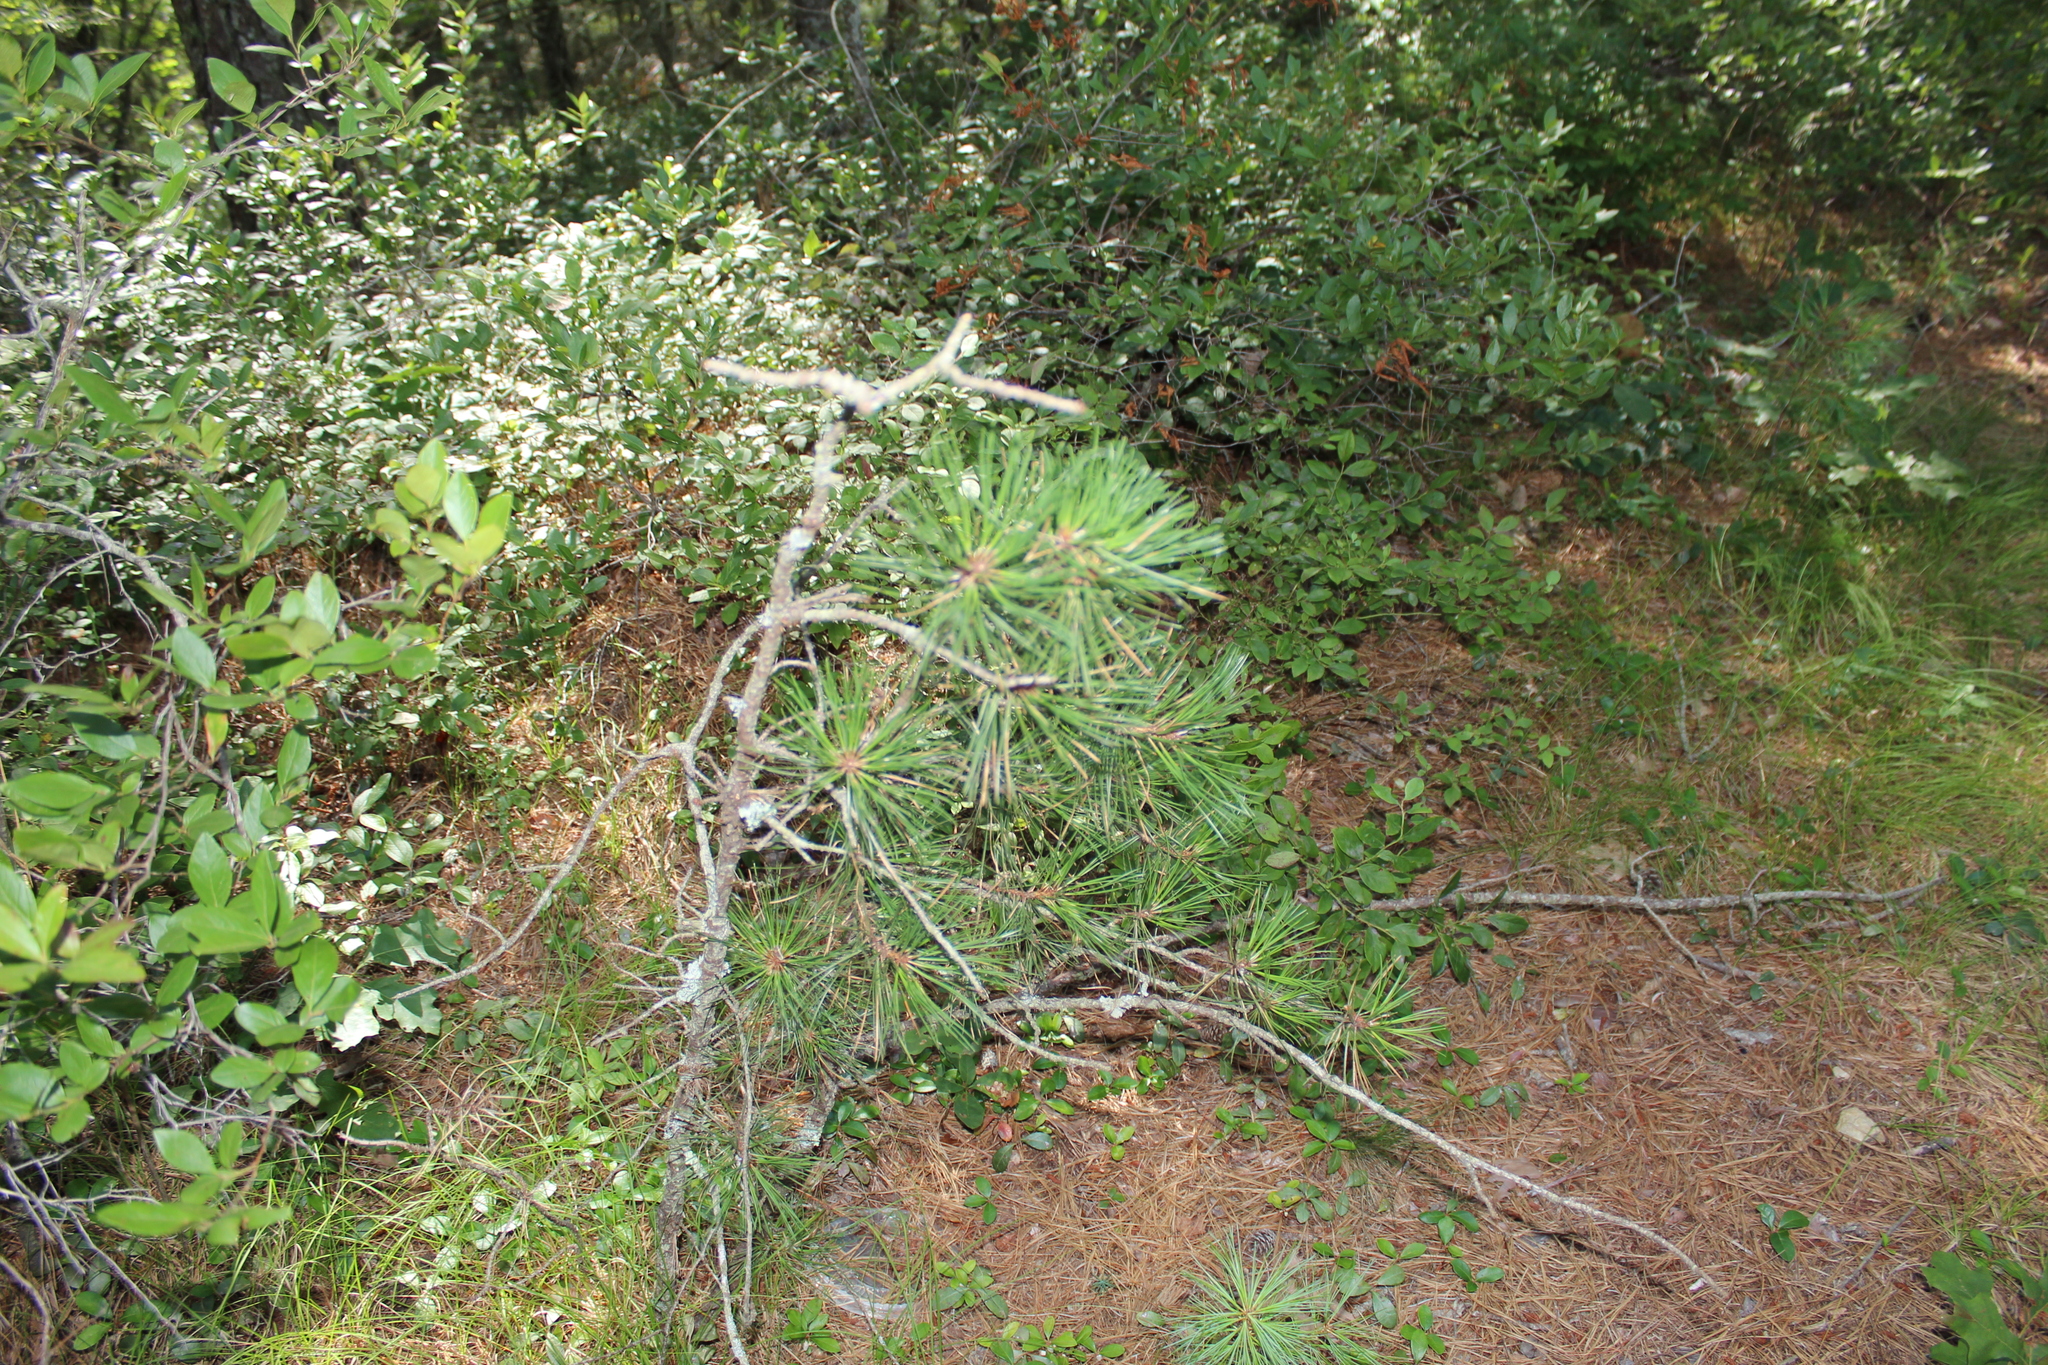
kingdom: Plantae
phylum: Tracheophyta
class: Pinopsida
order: Pinales
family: Pinaceae
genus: Pinus
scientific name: Pinus rigida
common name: Pitch pine
